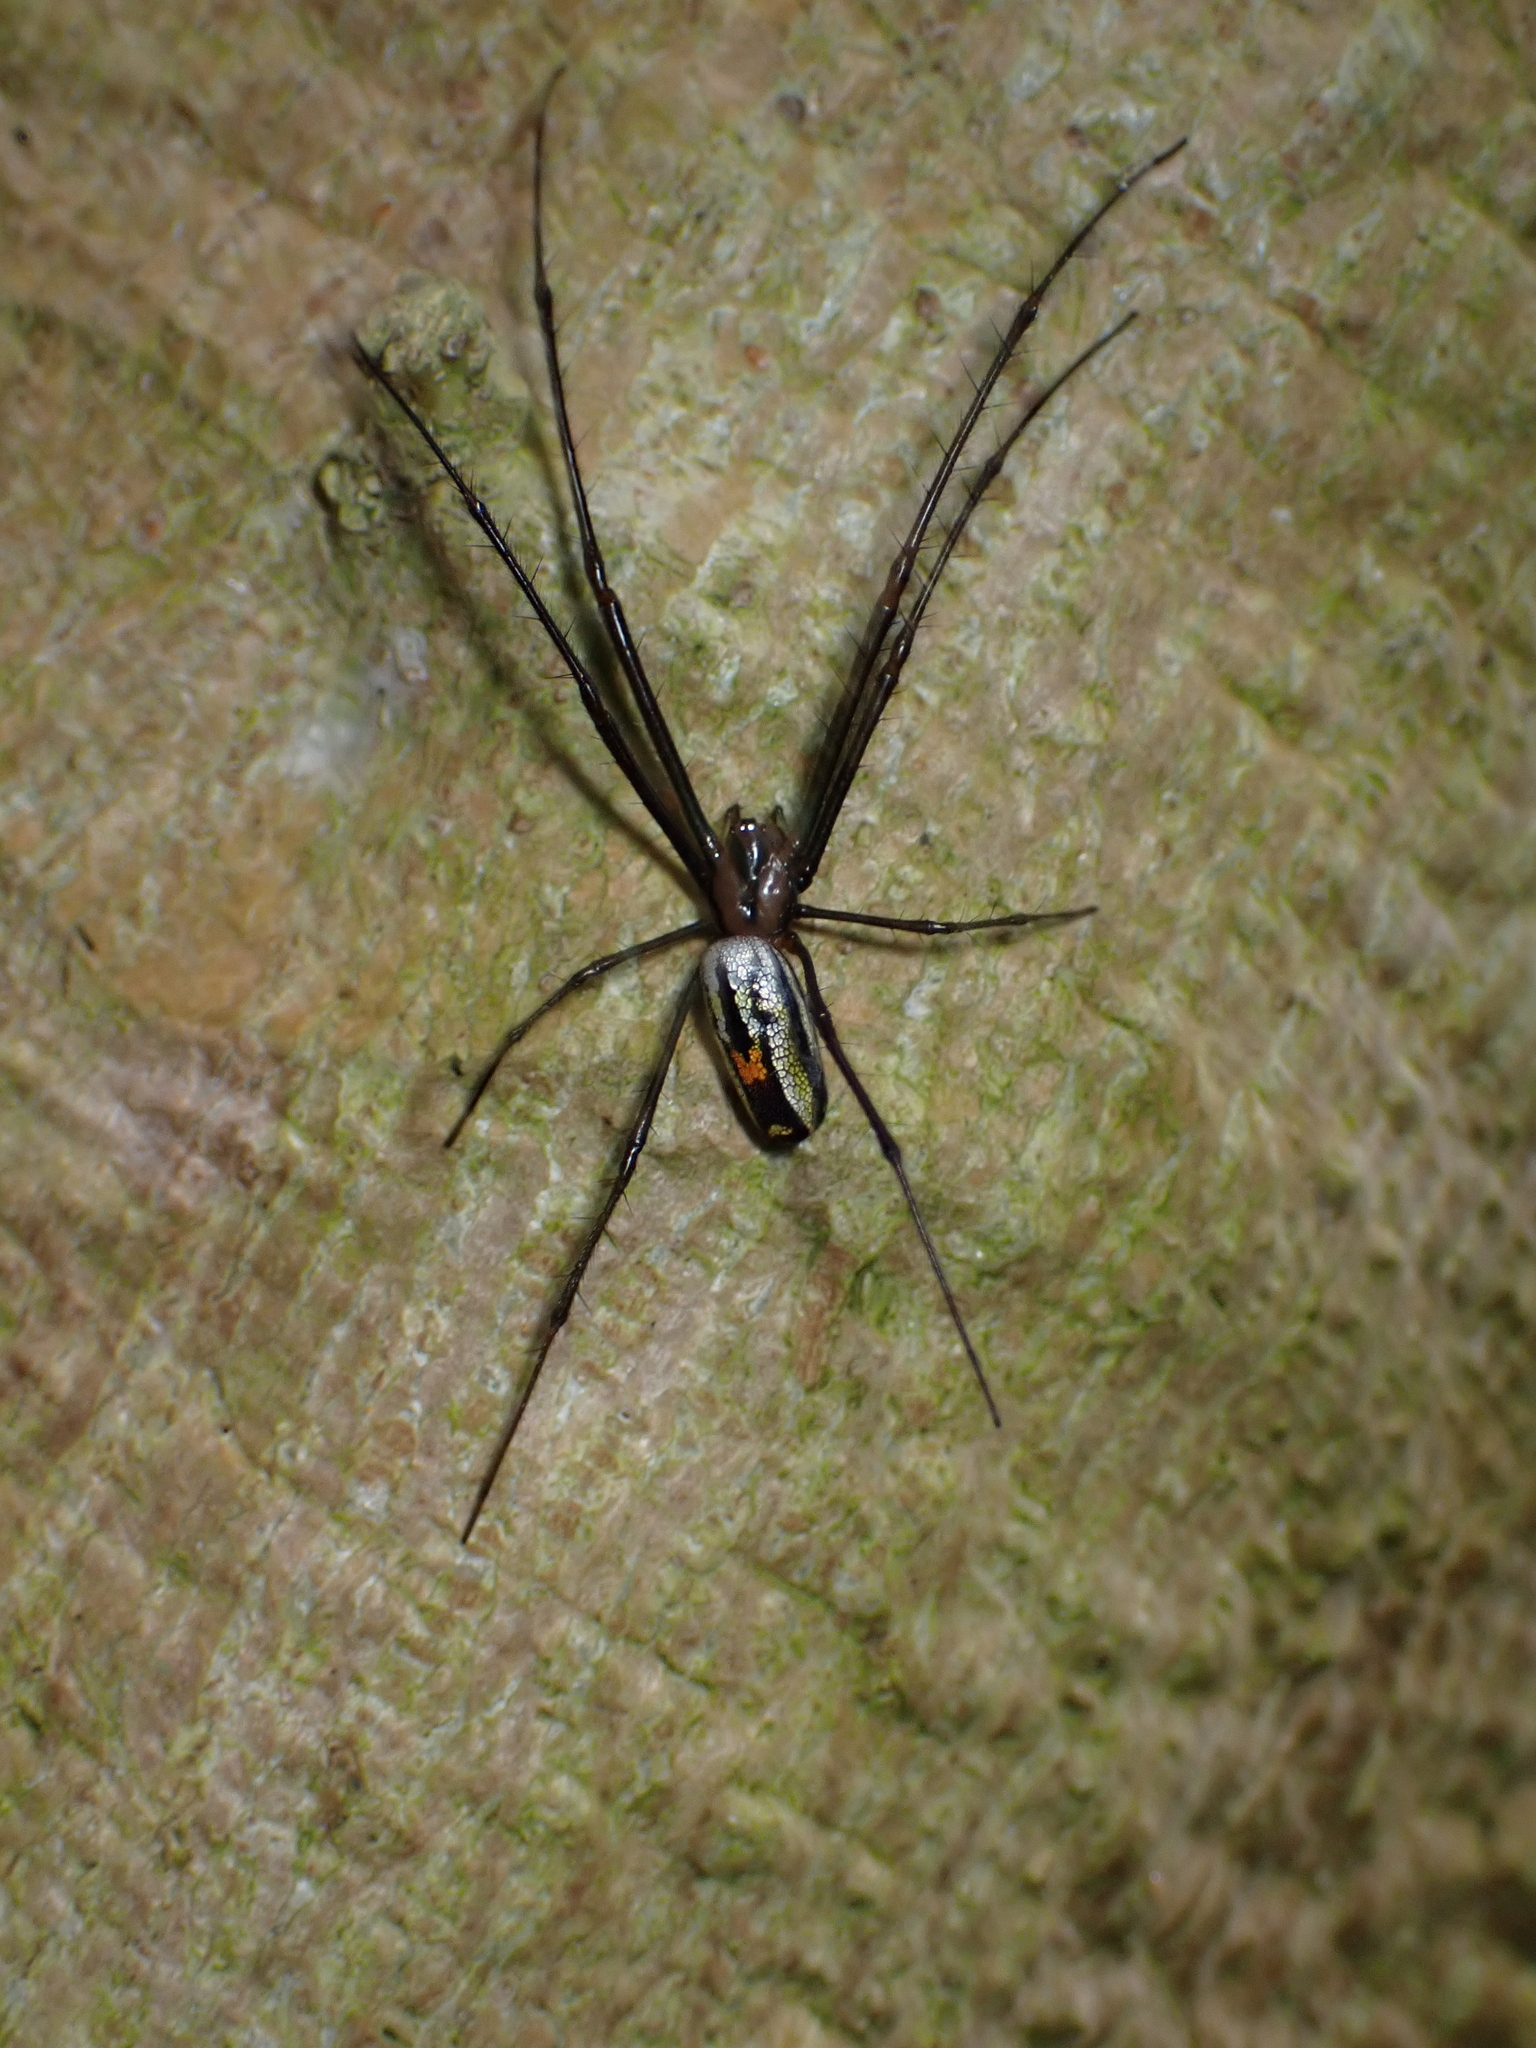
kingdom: Animalia
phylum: Arthropoda
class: Arachnida
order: Araneae
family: Tetragnathidae
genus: Leucauge
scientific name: Leucauge hebridisiana
